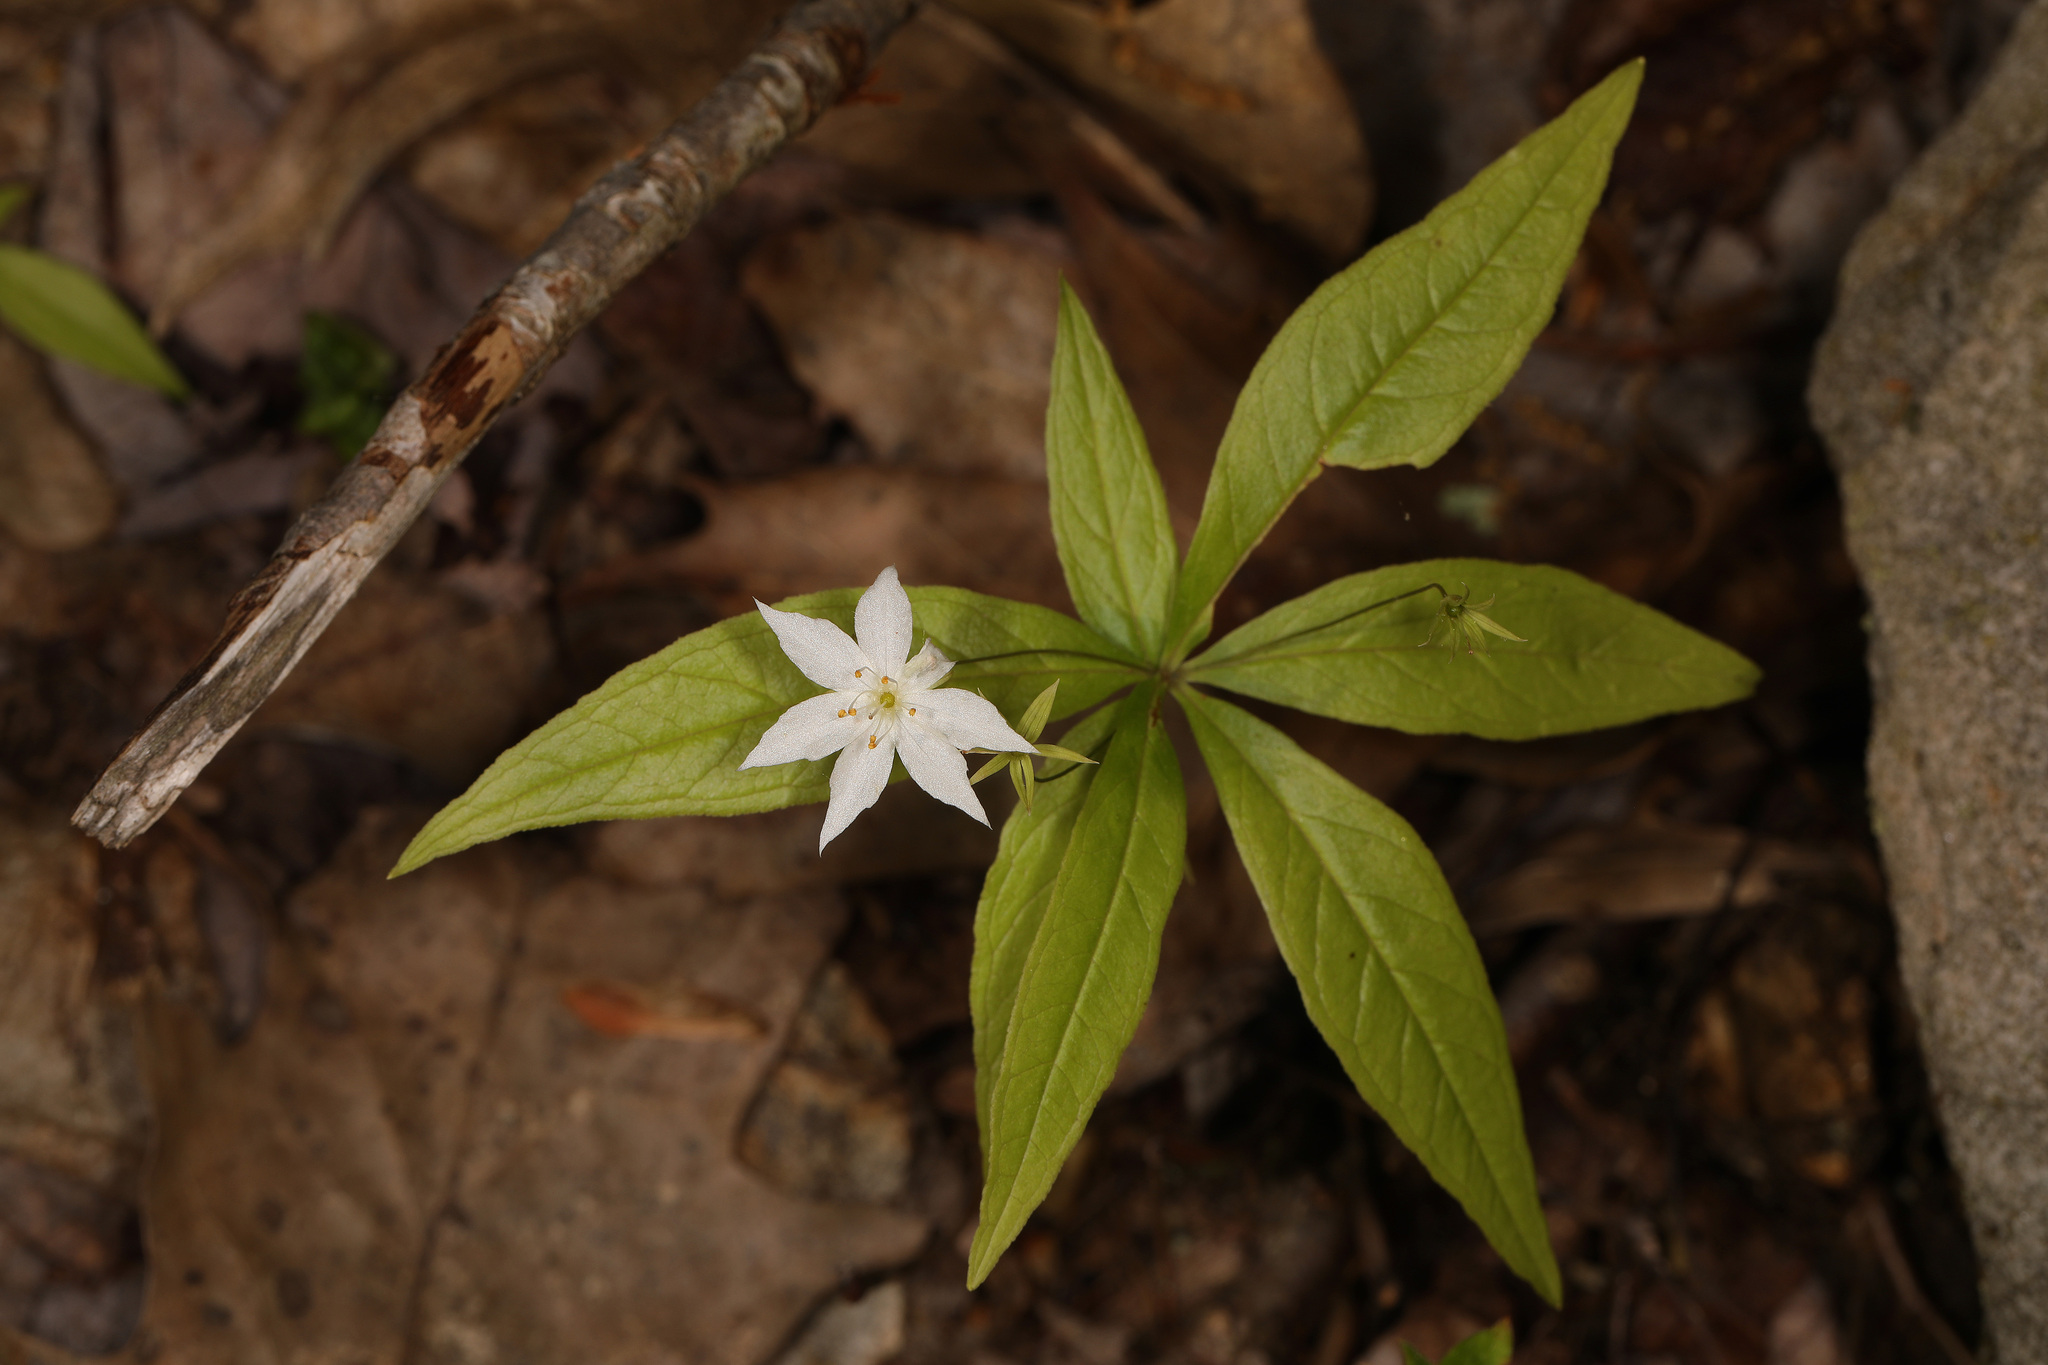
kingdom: Plantae
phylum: Tracheophyta
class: Magnoliopsida
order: Ericales
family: Primulaceae
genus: Lysimachia
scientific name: Lysimachia borealis
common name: American starflower
